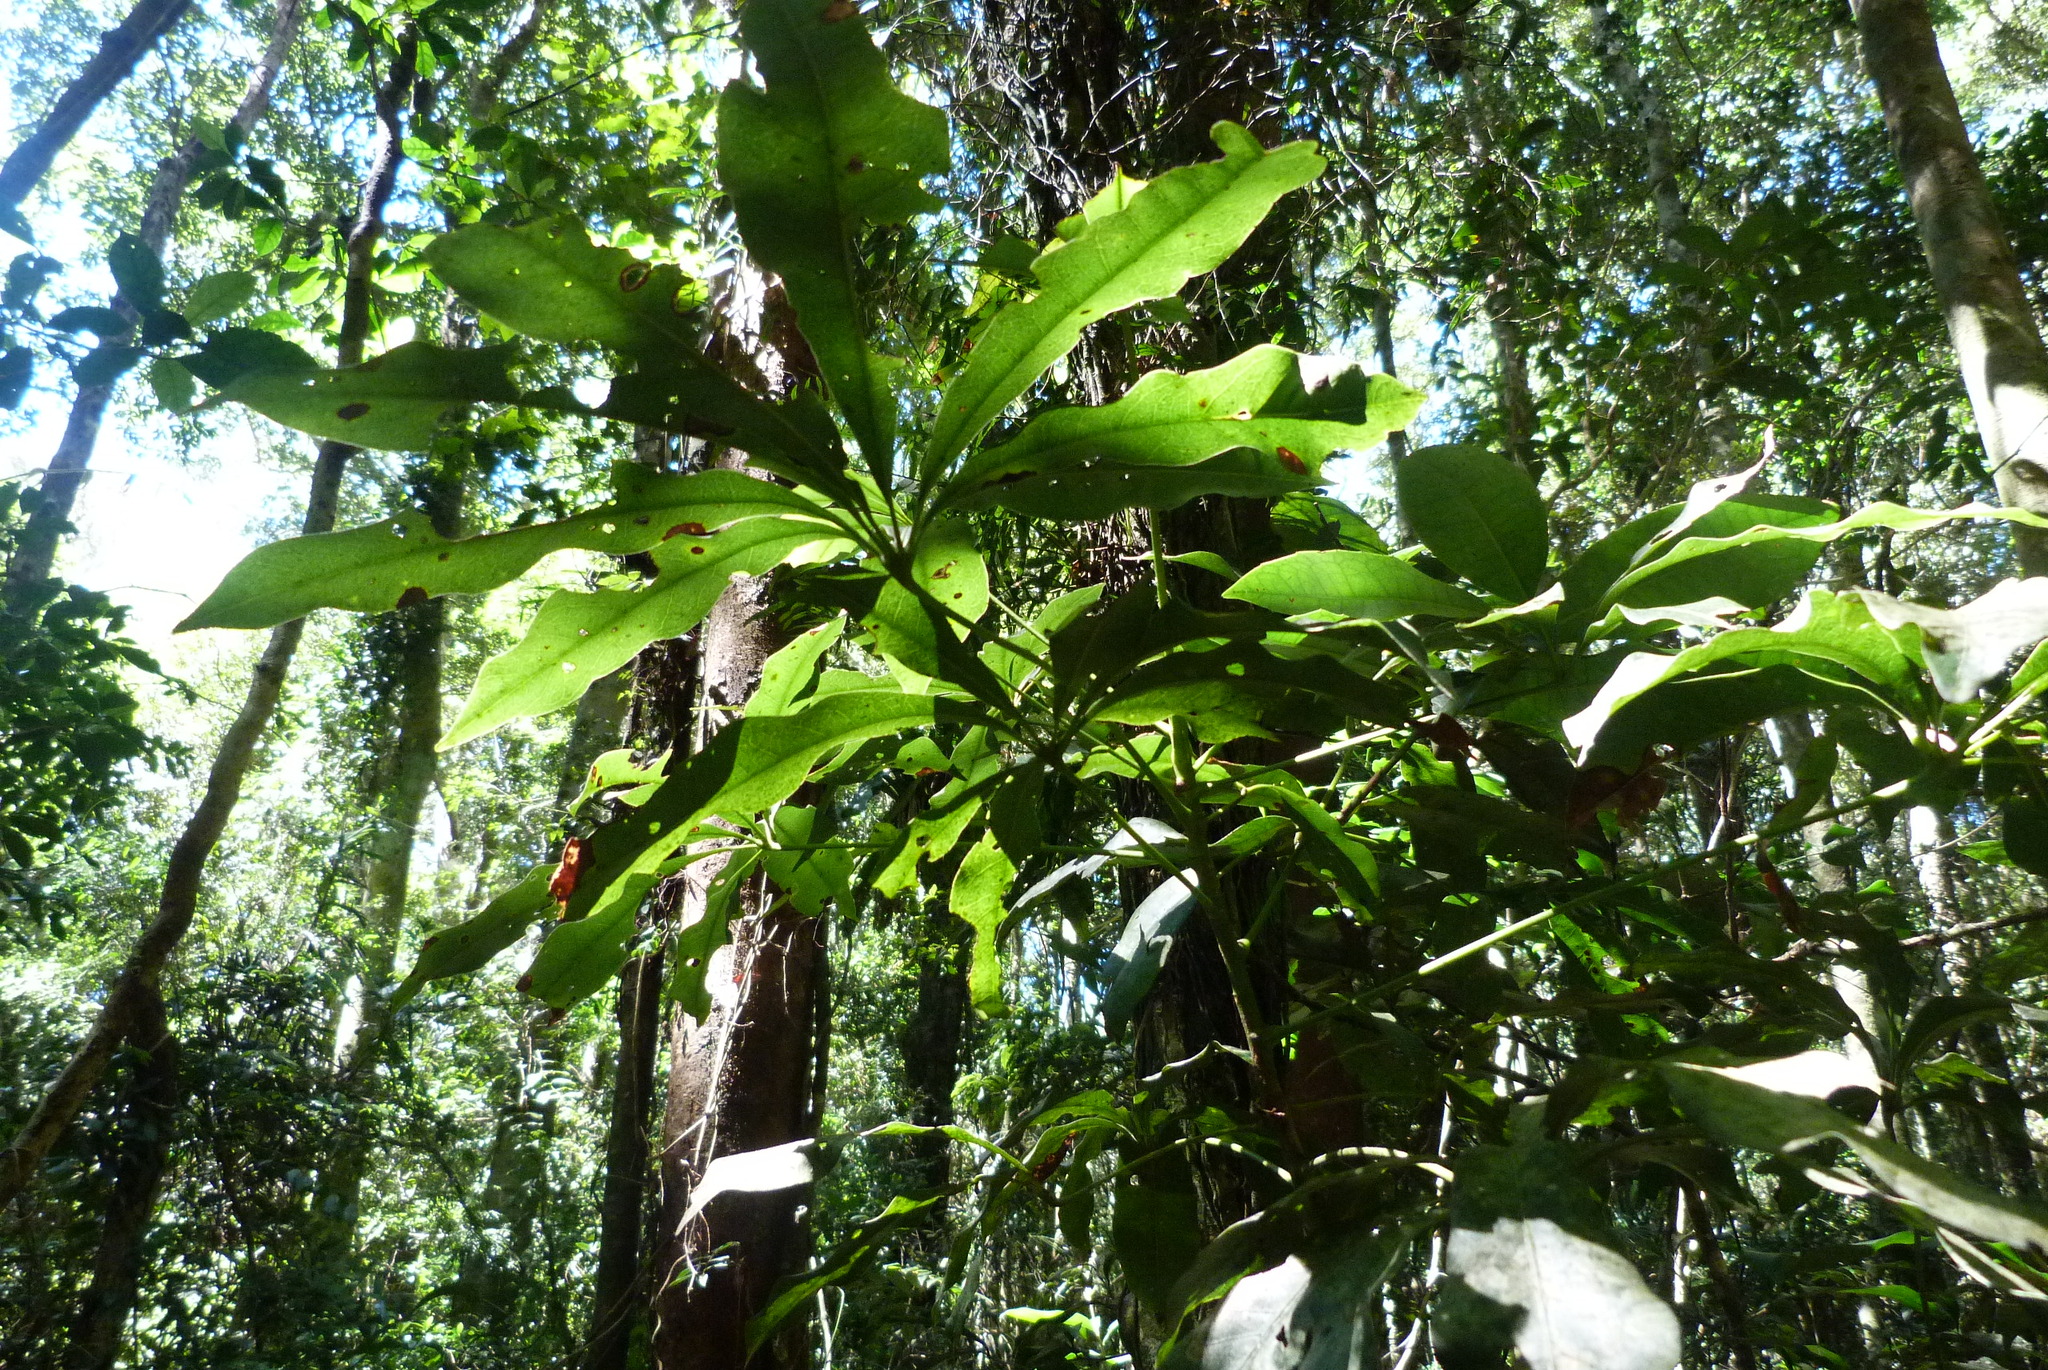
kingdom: Plantae
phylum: Tracheophyta
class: Magnoliopsida
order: Malvales
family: Malvaceae
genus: Argyrodendron
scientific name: Argyrodendron actinophyllum
